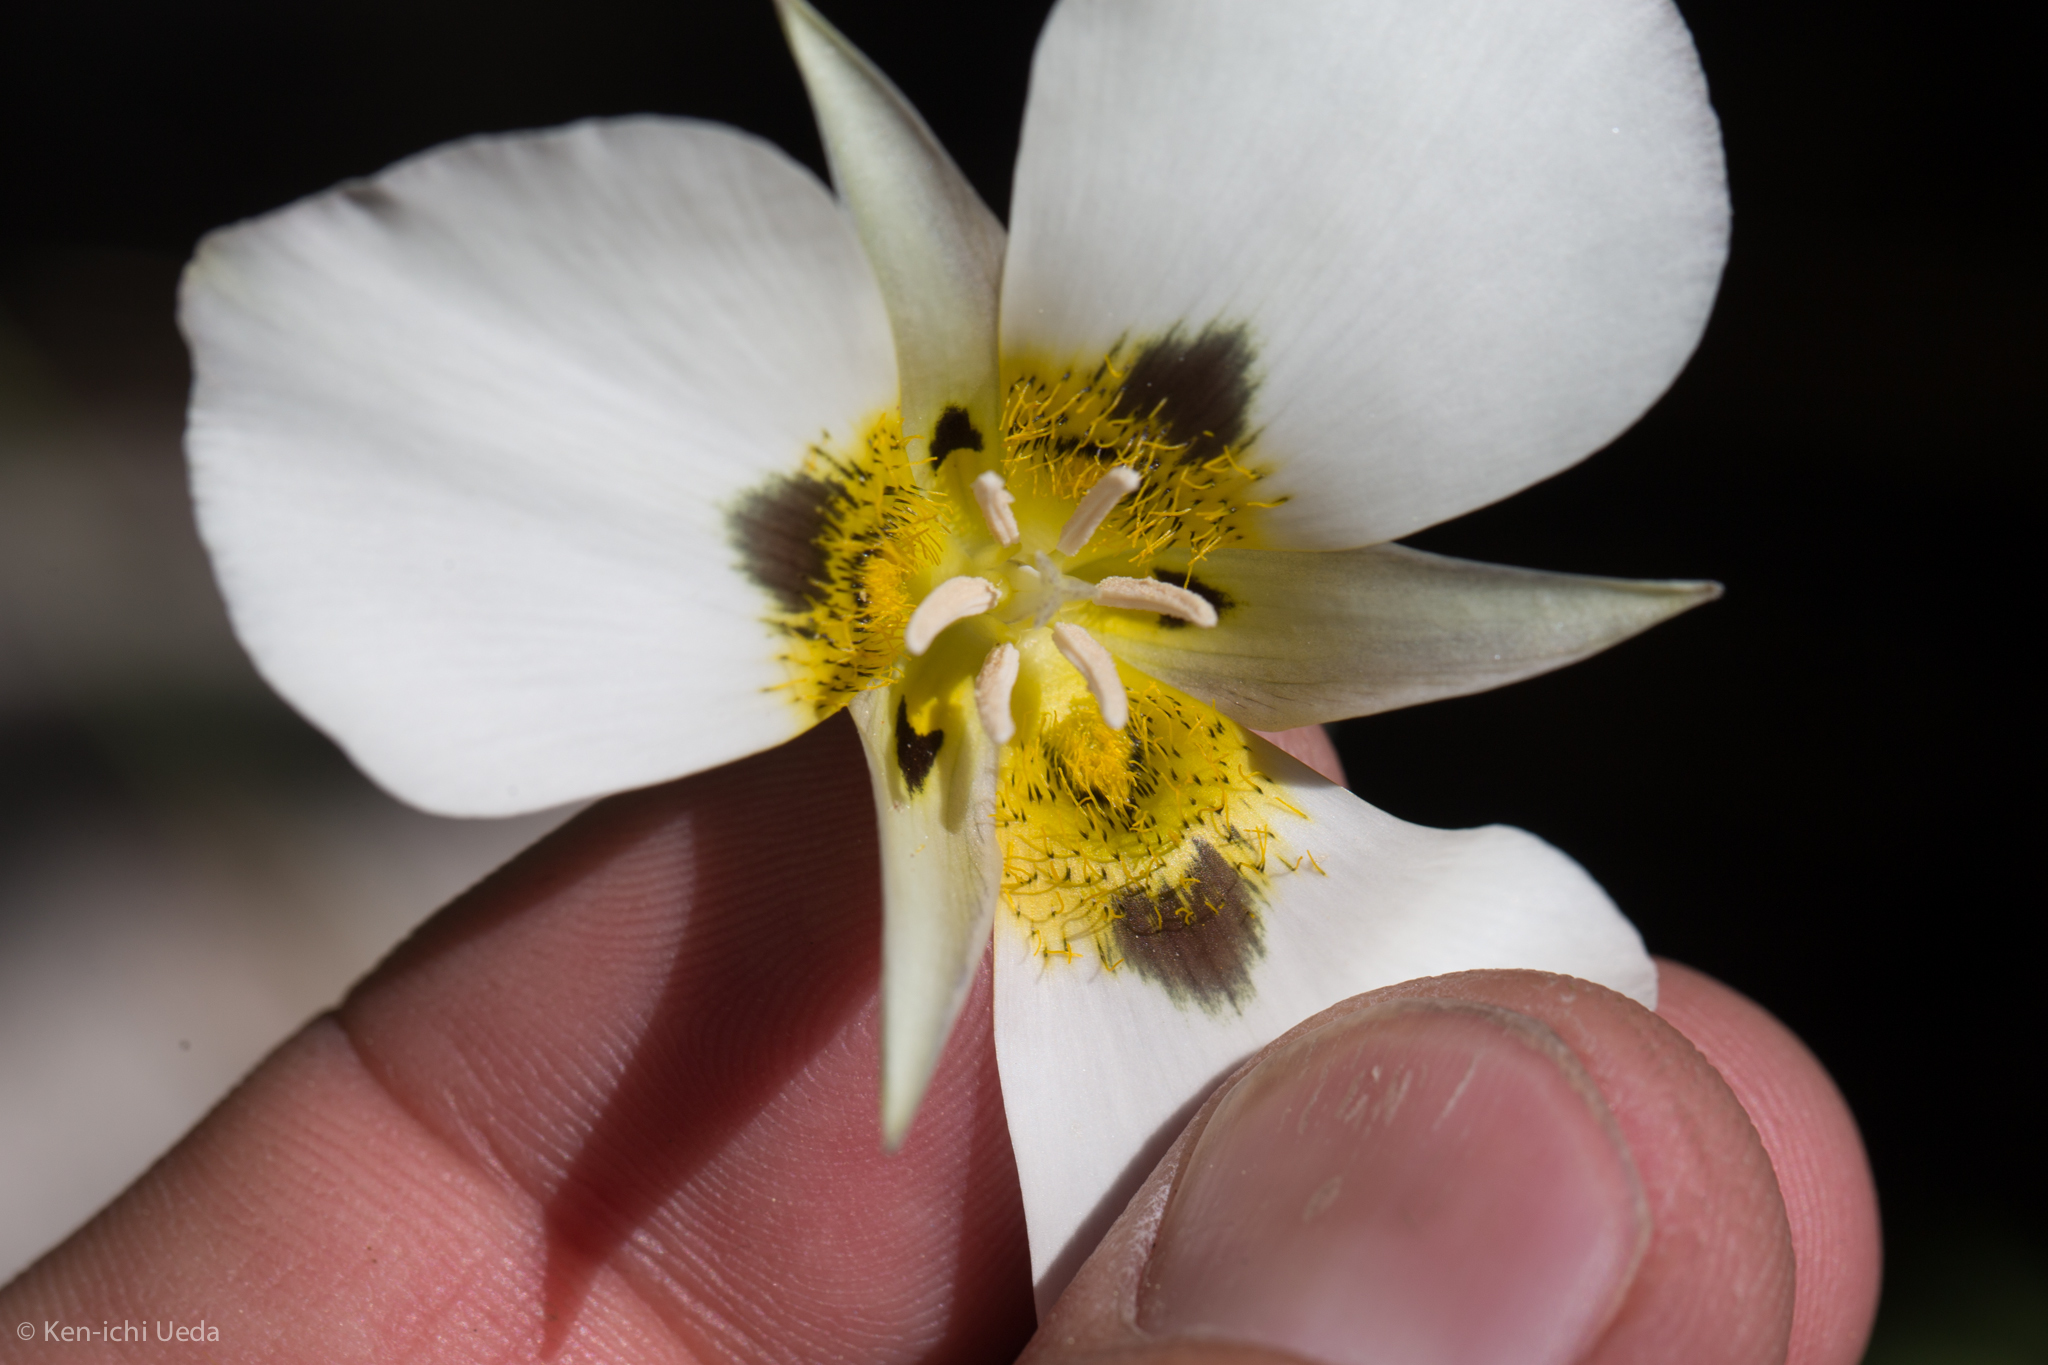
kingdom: Plantae
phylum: Tracheophyta
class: Liliopsida
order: Liliales
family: Liliaceae
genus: Calochortus
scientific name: Calochortus leichtlinii
